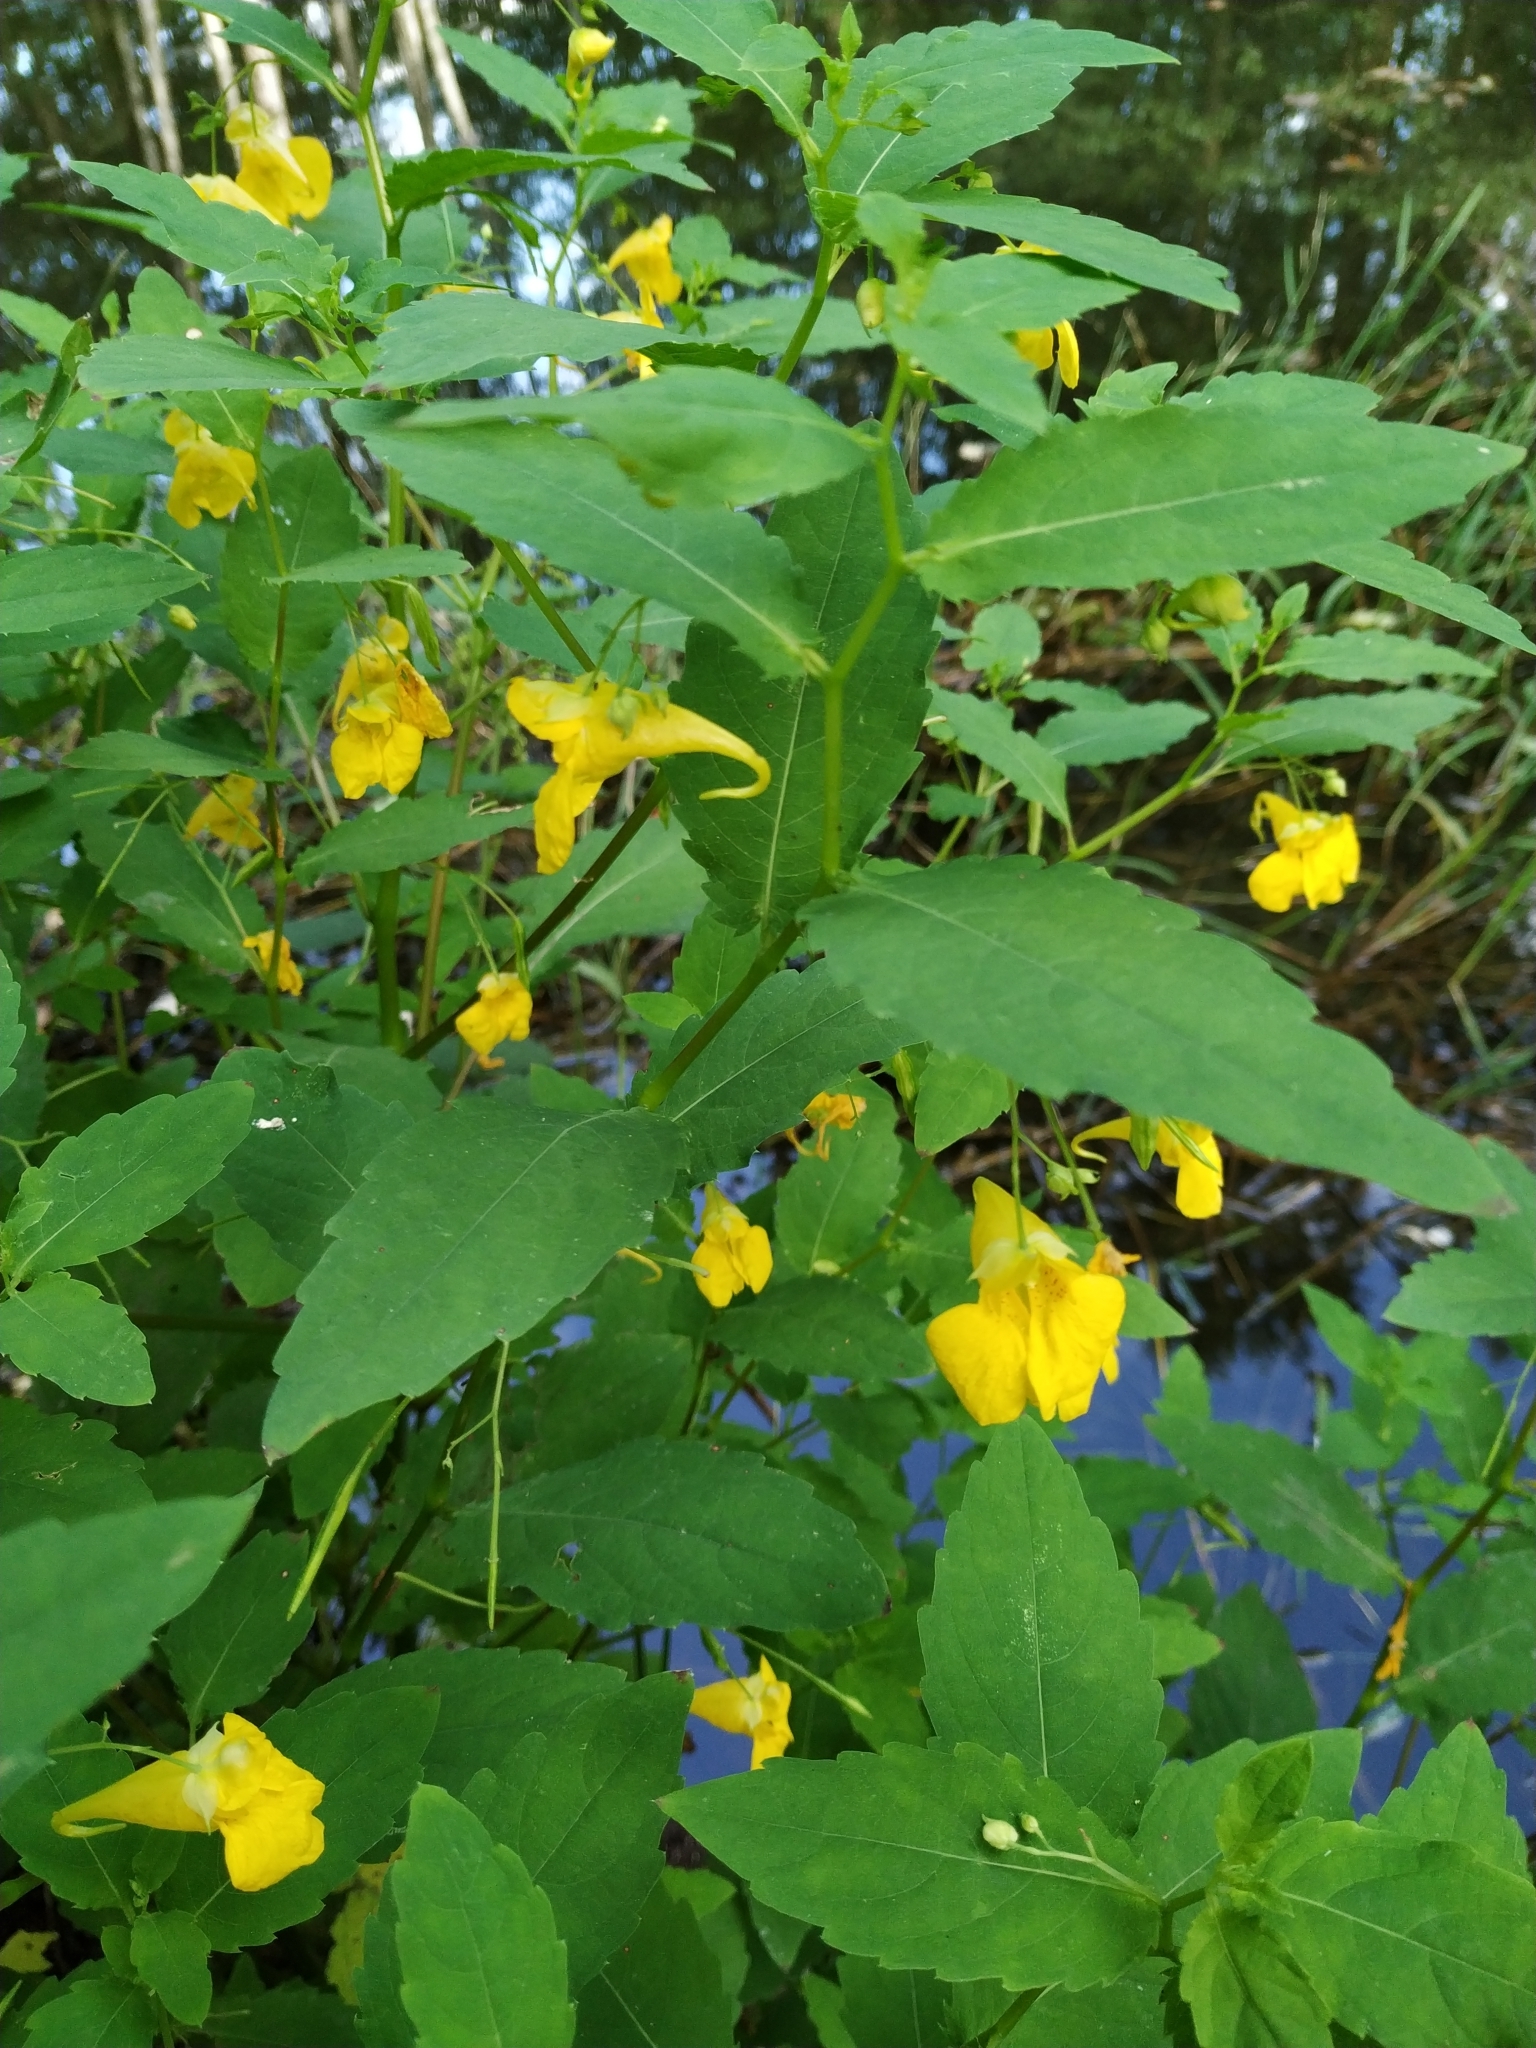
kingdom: Plantae
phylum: Tracheophyta
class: Magnoliopsida
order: Ericales
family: Balsaminaceae
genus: Impatiens
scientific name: Impatiens noli-tangere
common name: Touch-me-not balsam
